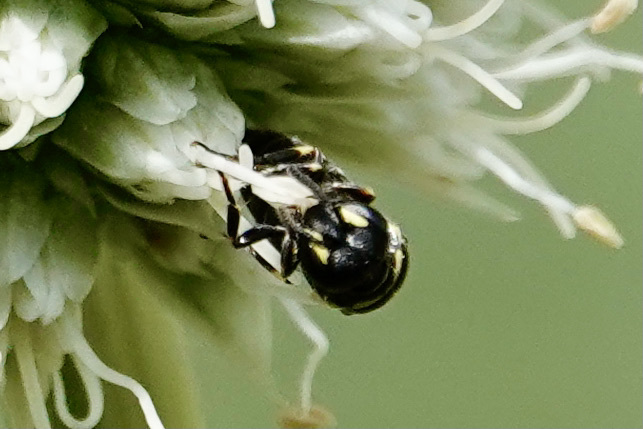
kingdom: Animalia
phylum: Arthropoda
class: Insecta
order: Hymenoptera
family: Colletidae
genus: Hylaeus
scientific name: Hylaeus modestus
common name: Yellow-faced bee
